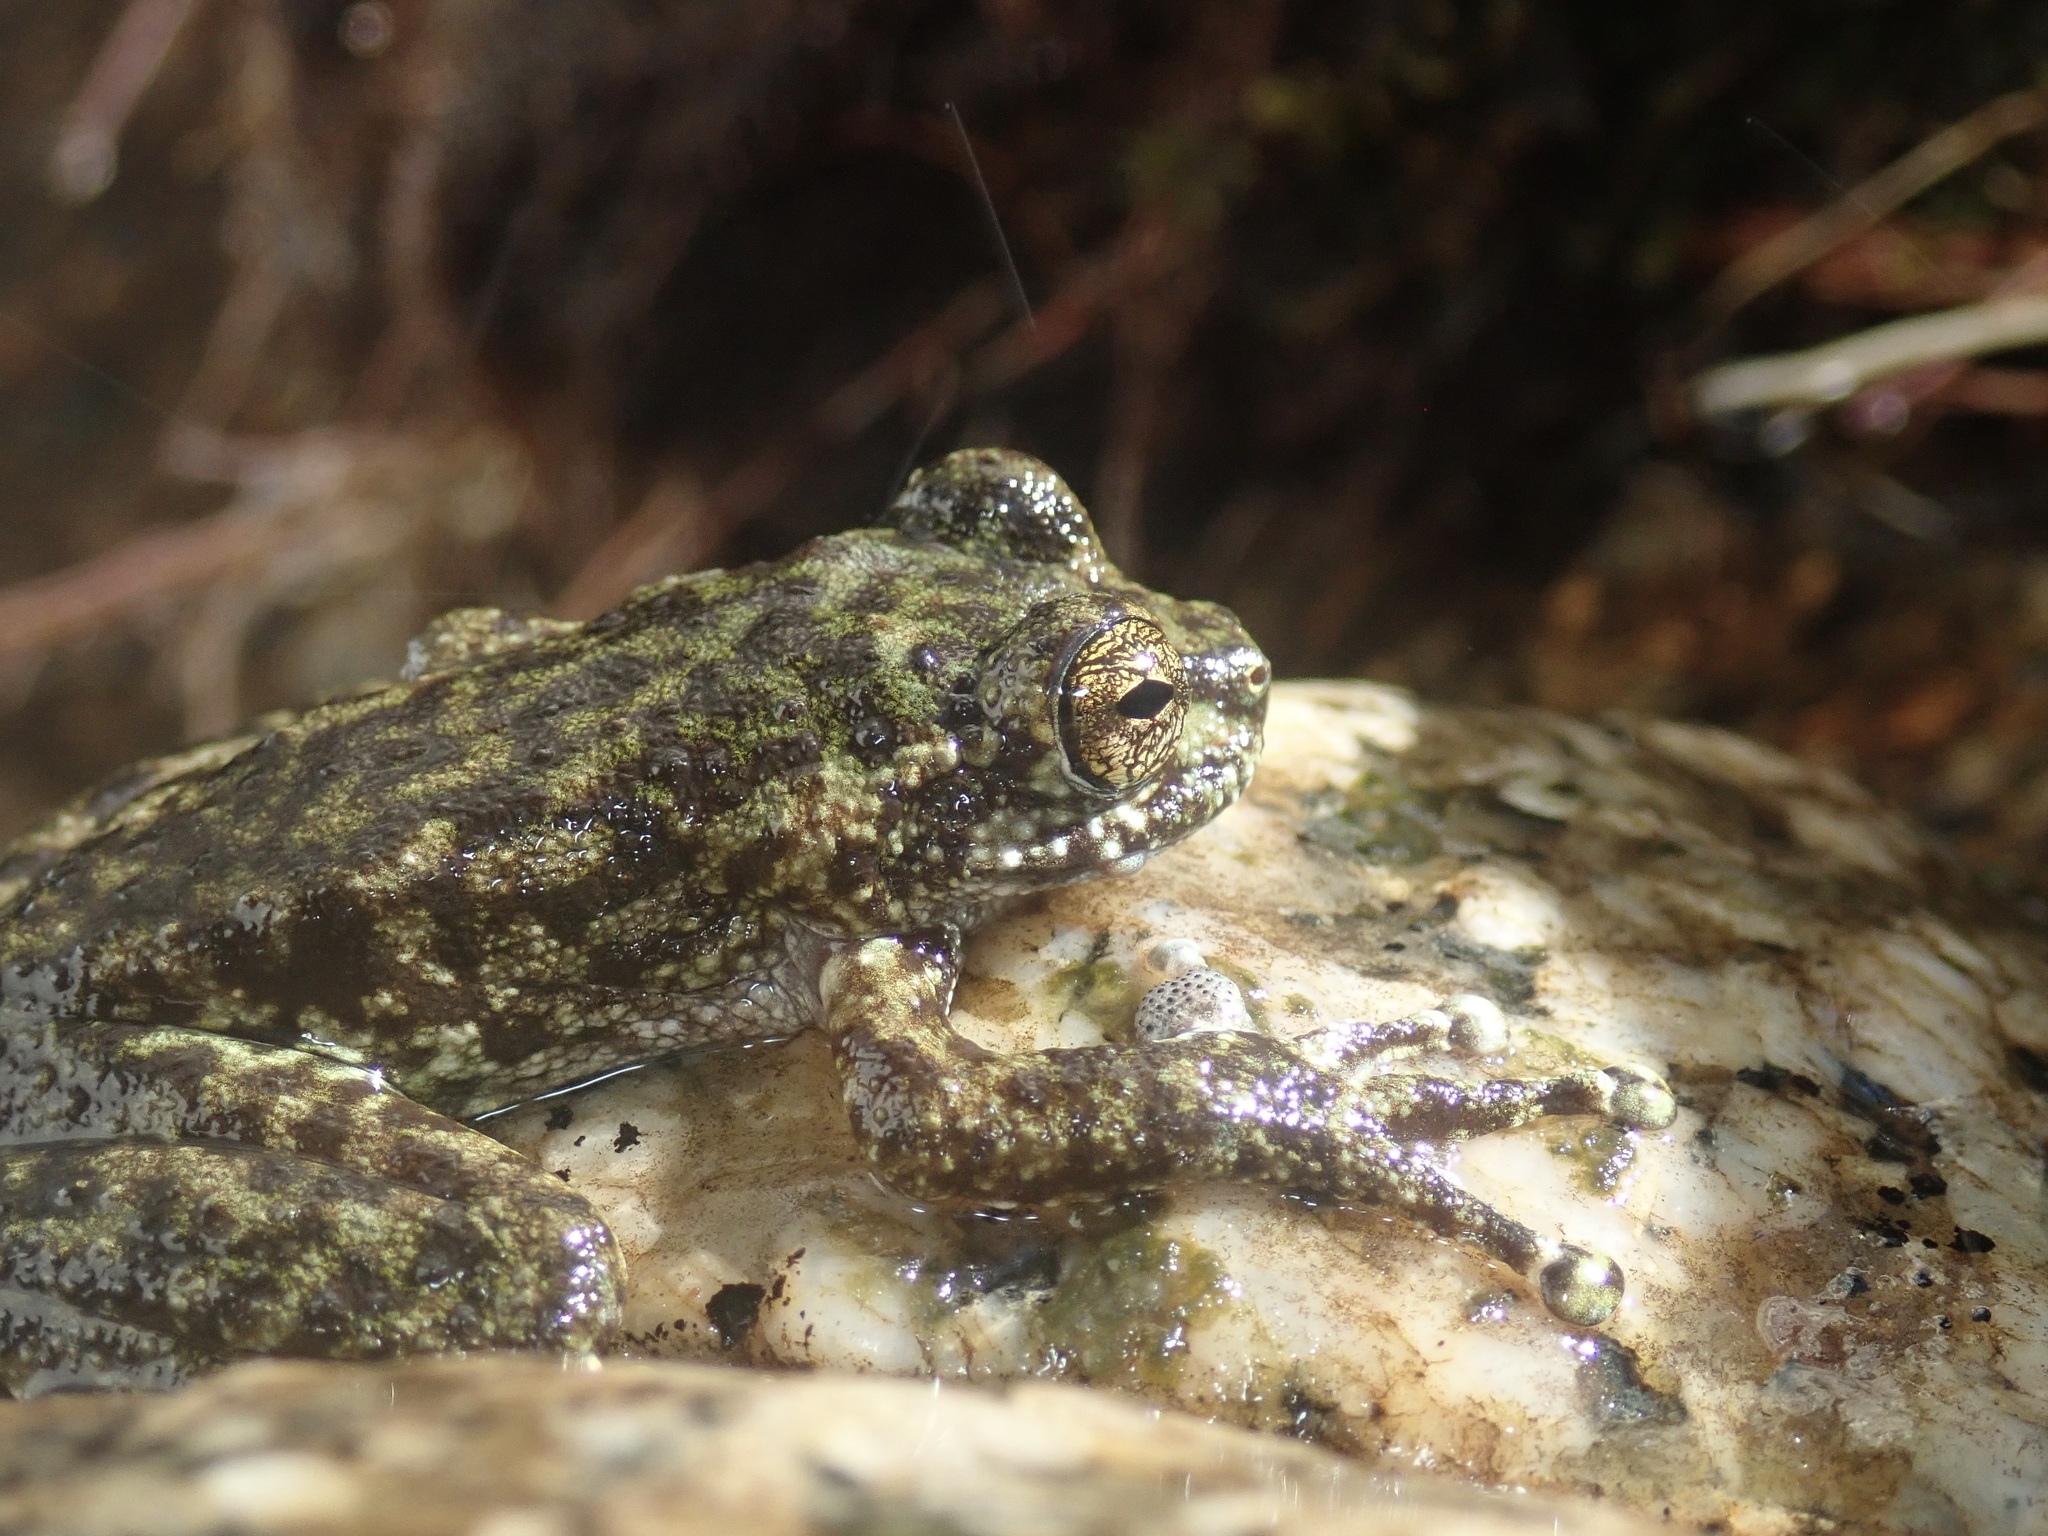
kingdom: Animalia
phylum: Chordata
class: Amphibia
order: Anura
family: Pelodryadidae
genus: Ranoidea
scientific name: Ranoidea nannotis
